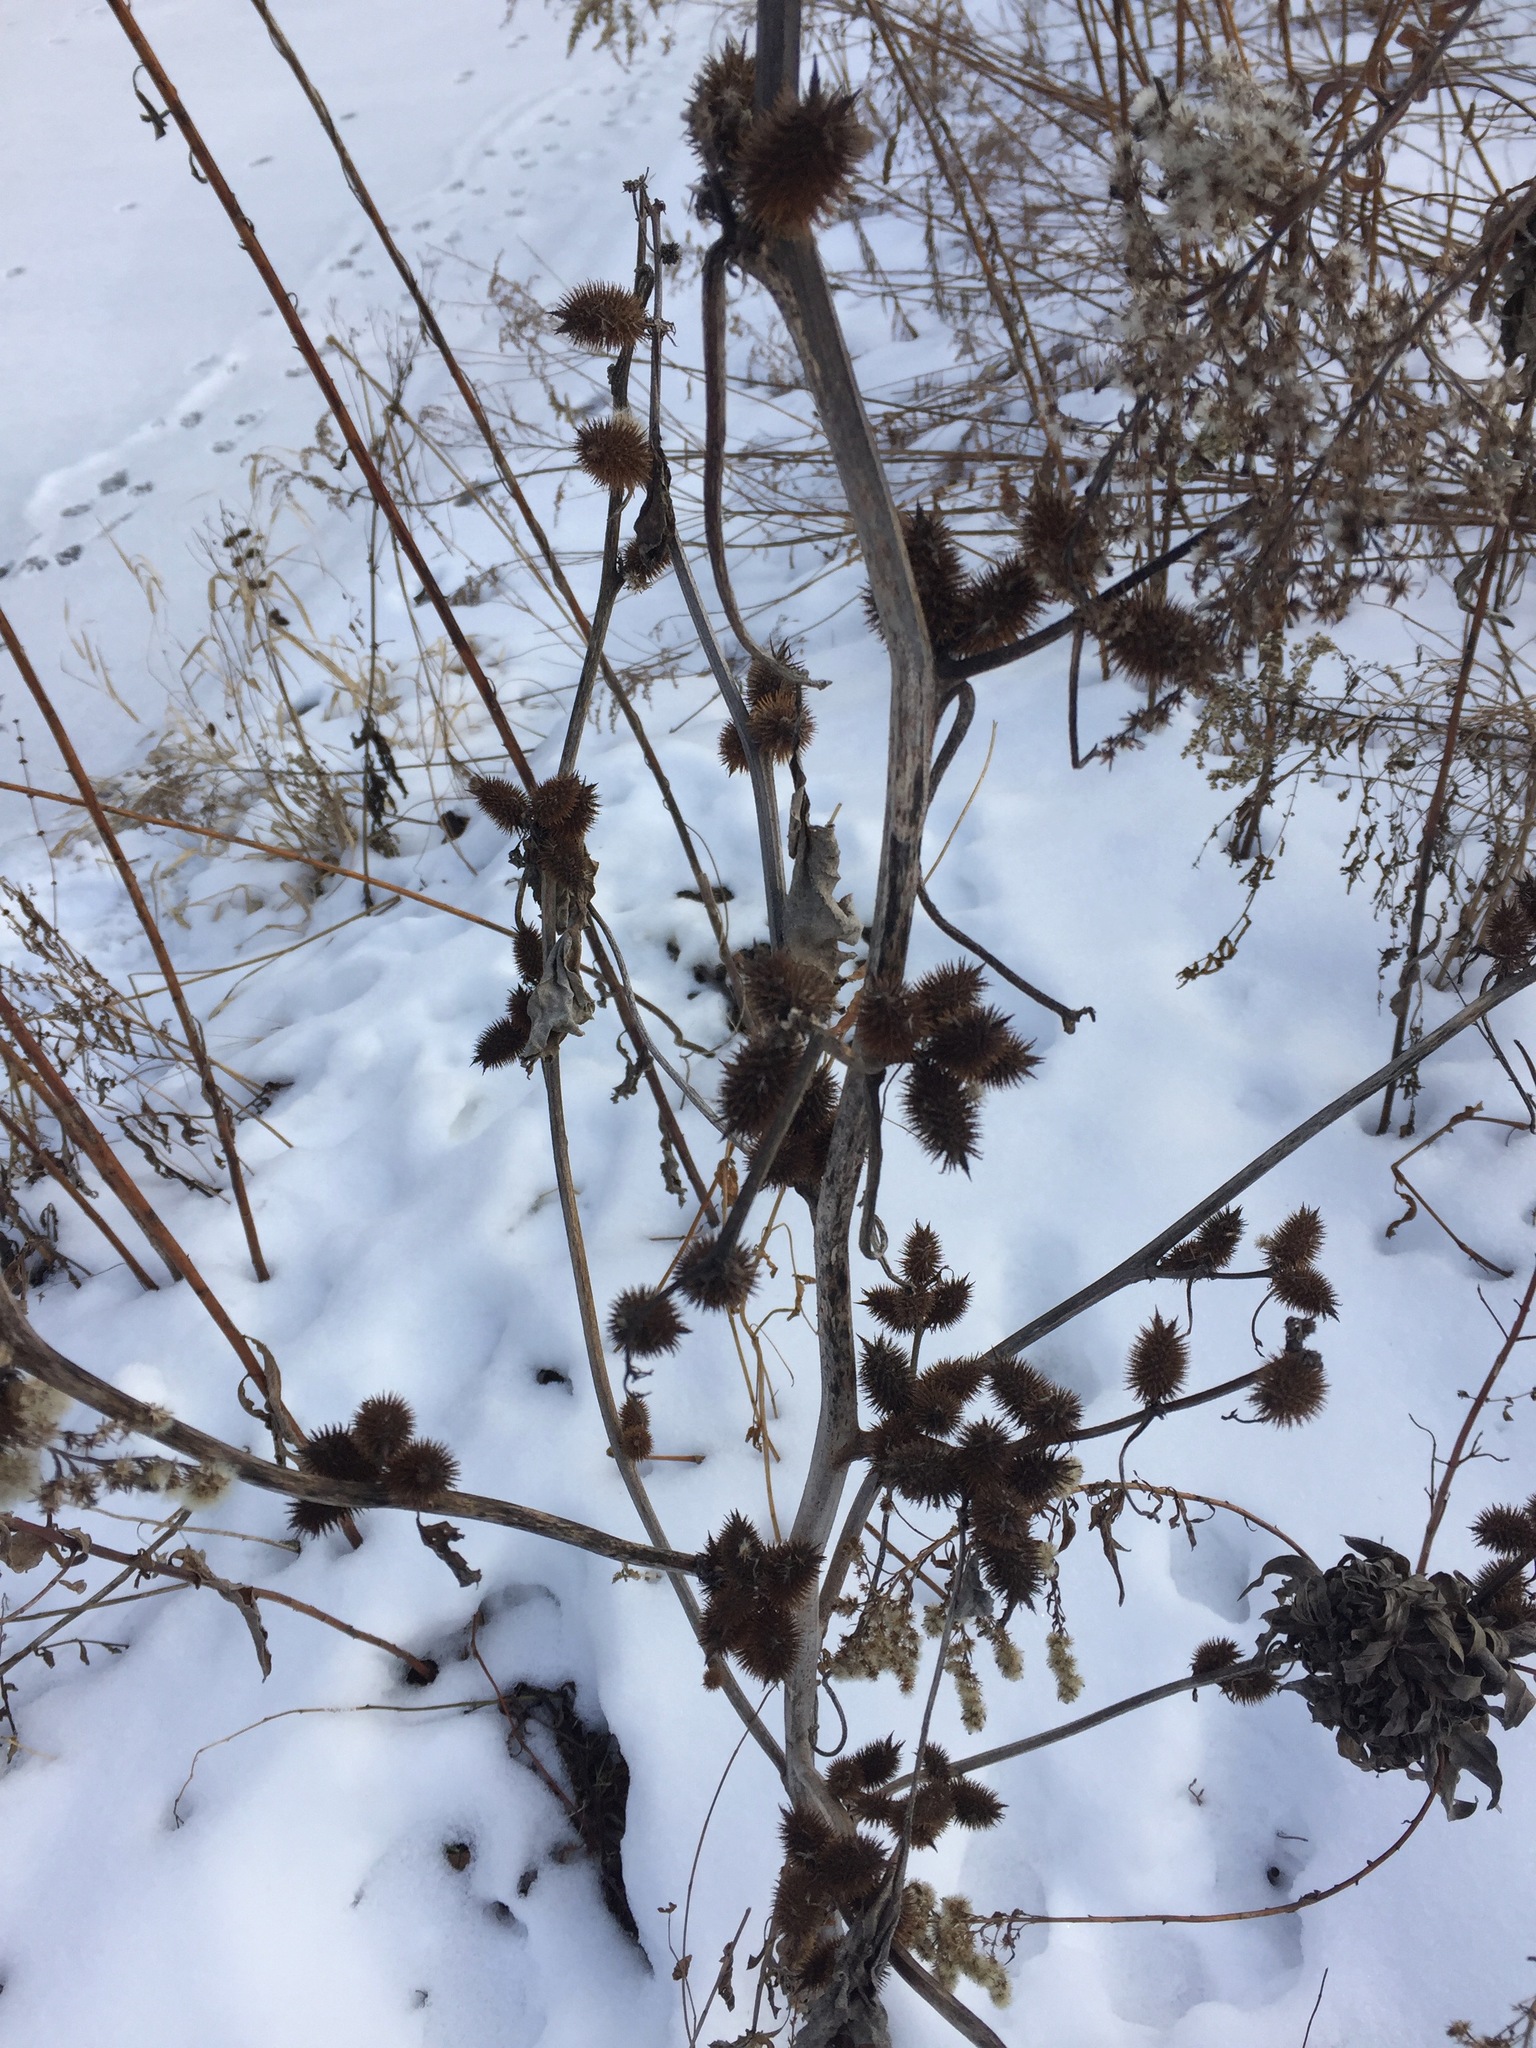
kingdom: Plantae
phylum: Tracheophyta
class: Magnoliopsida
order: Asterales
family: Asteraceae
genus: Xanthium
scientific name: Xanthium strumarium
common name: Rough cocklebur
